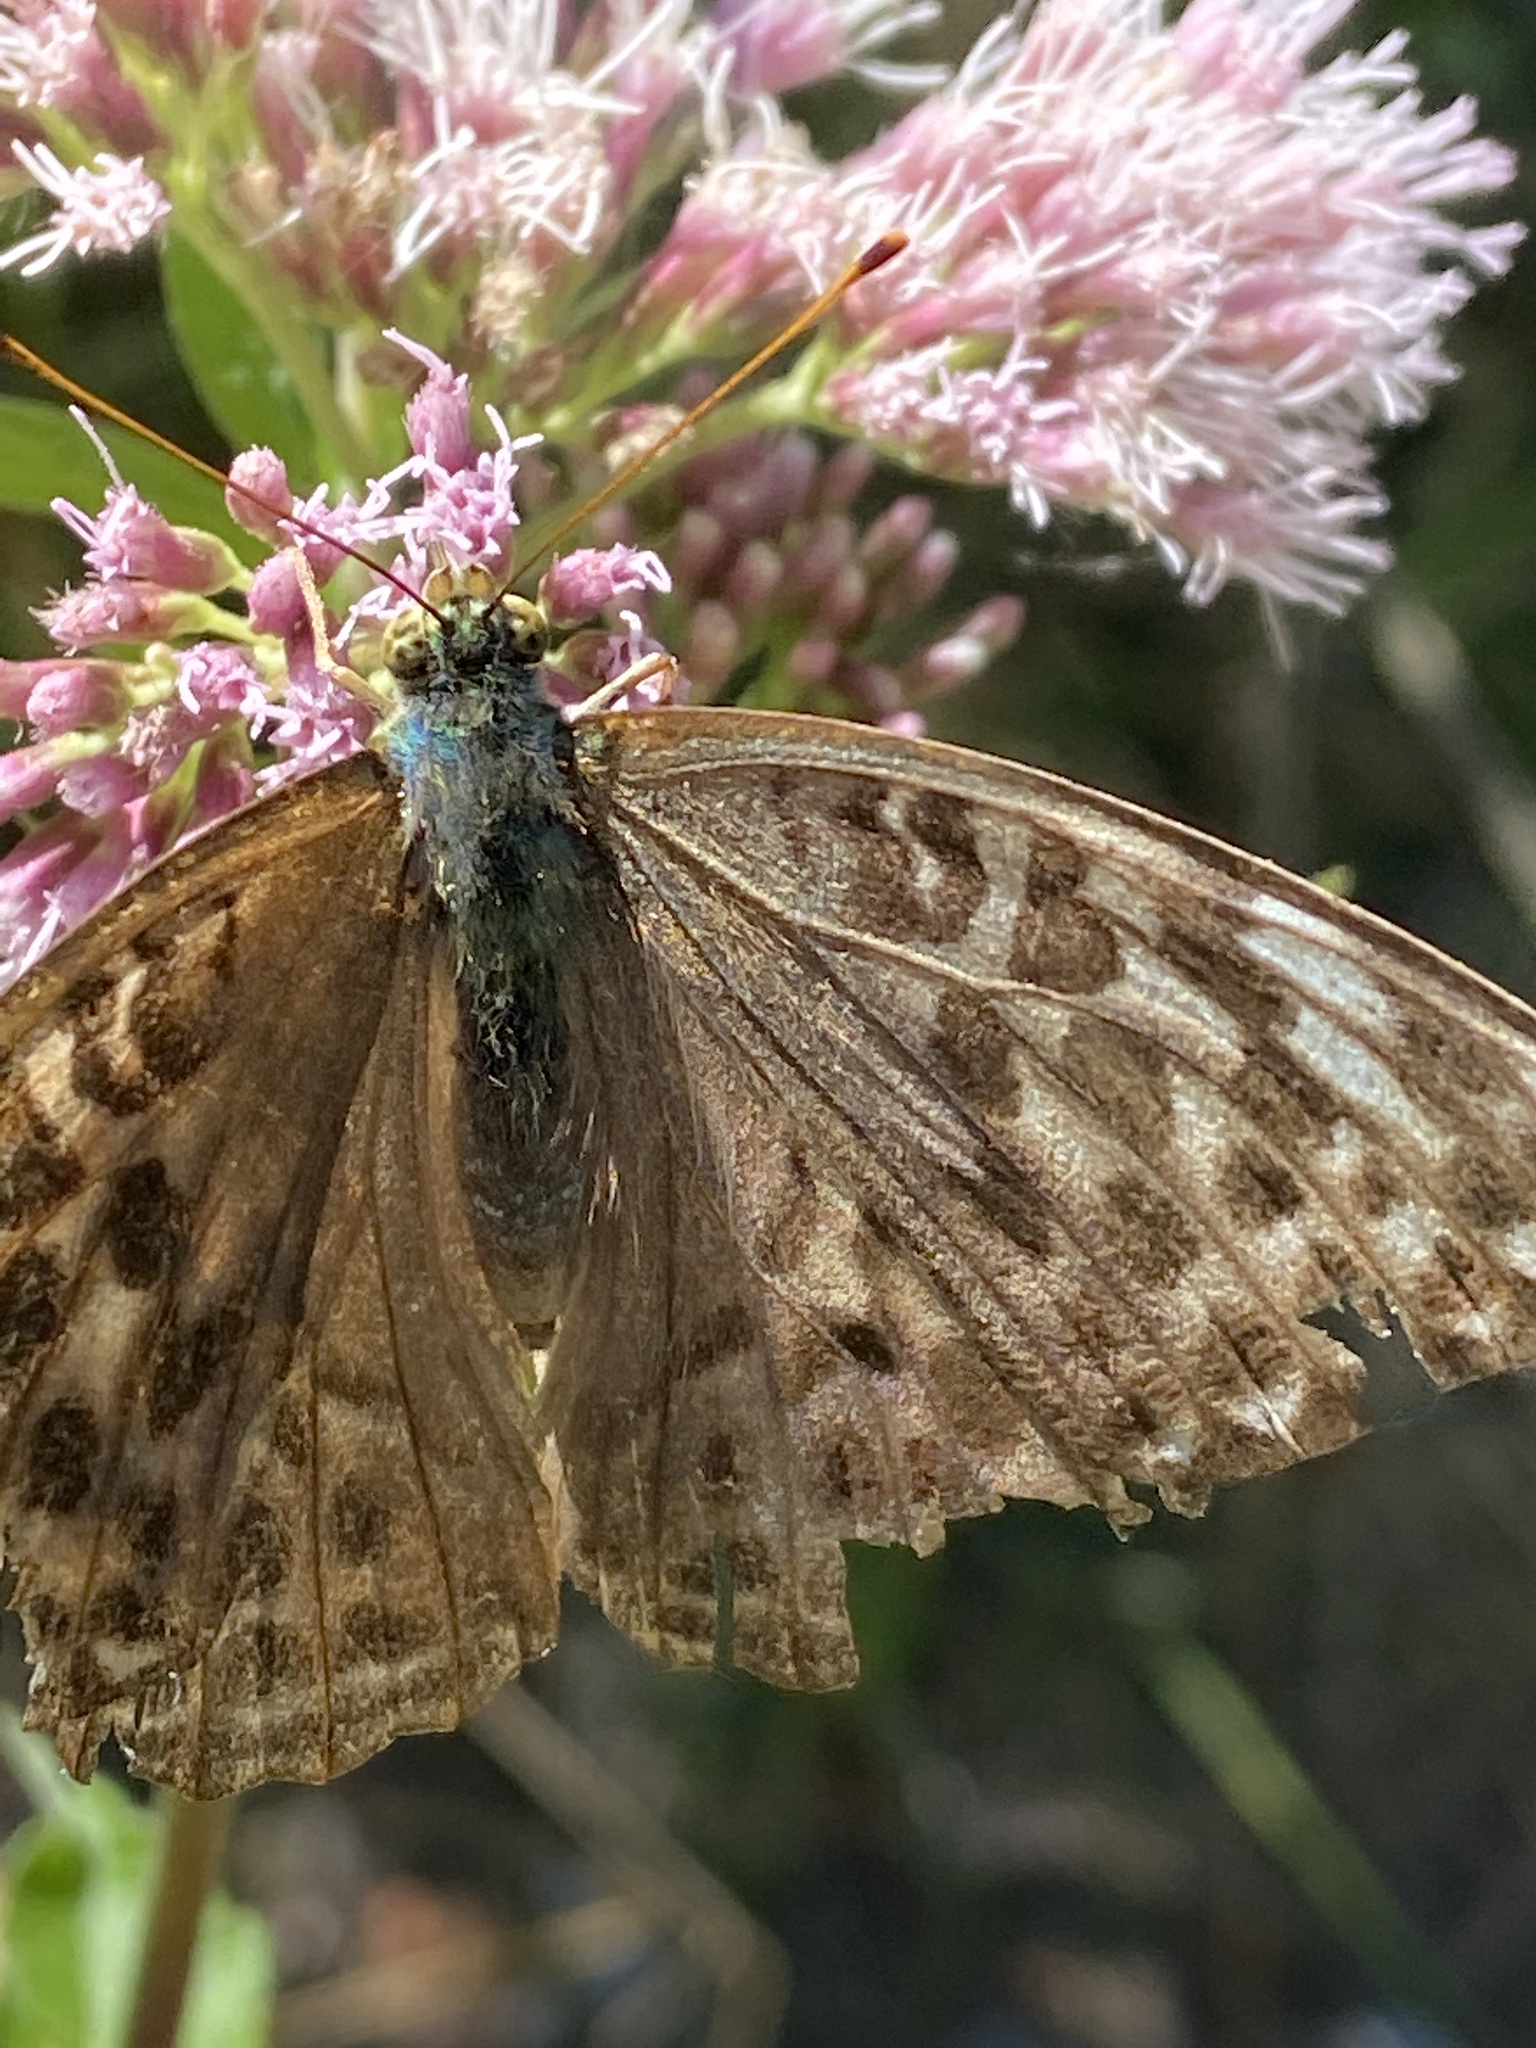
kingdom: Animalia
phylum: Arthropoda
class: Insecta
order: Lepidoptera
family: Nymphalidae
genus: Argynnis
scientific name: Argynnis paphia
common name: Silver-washed fritillary
